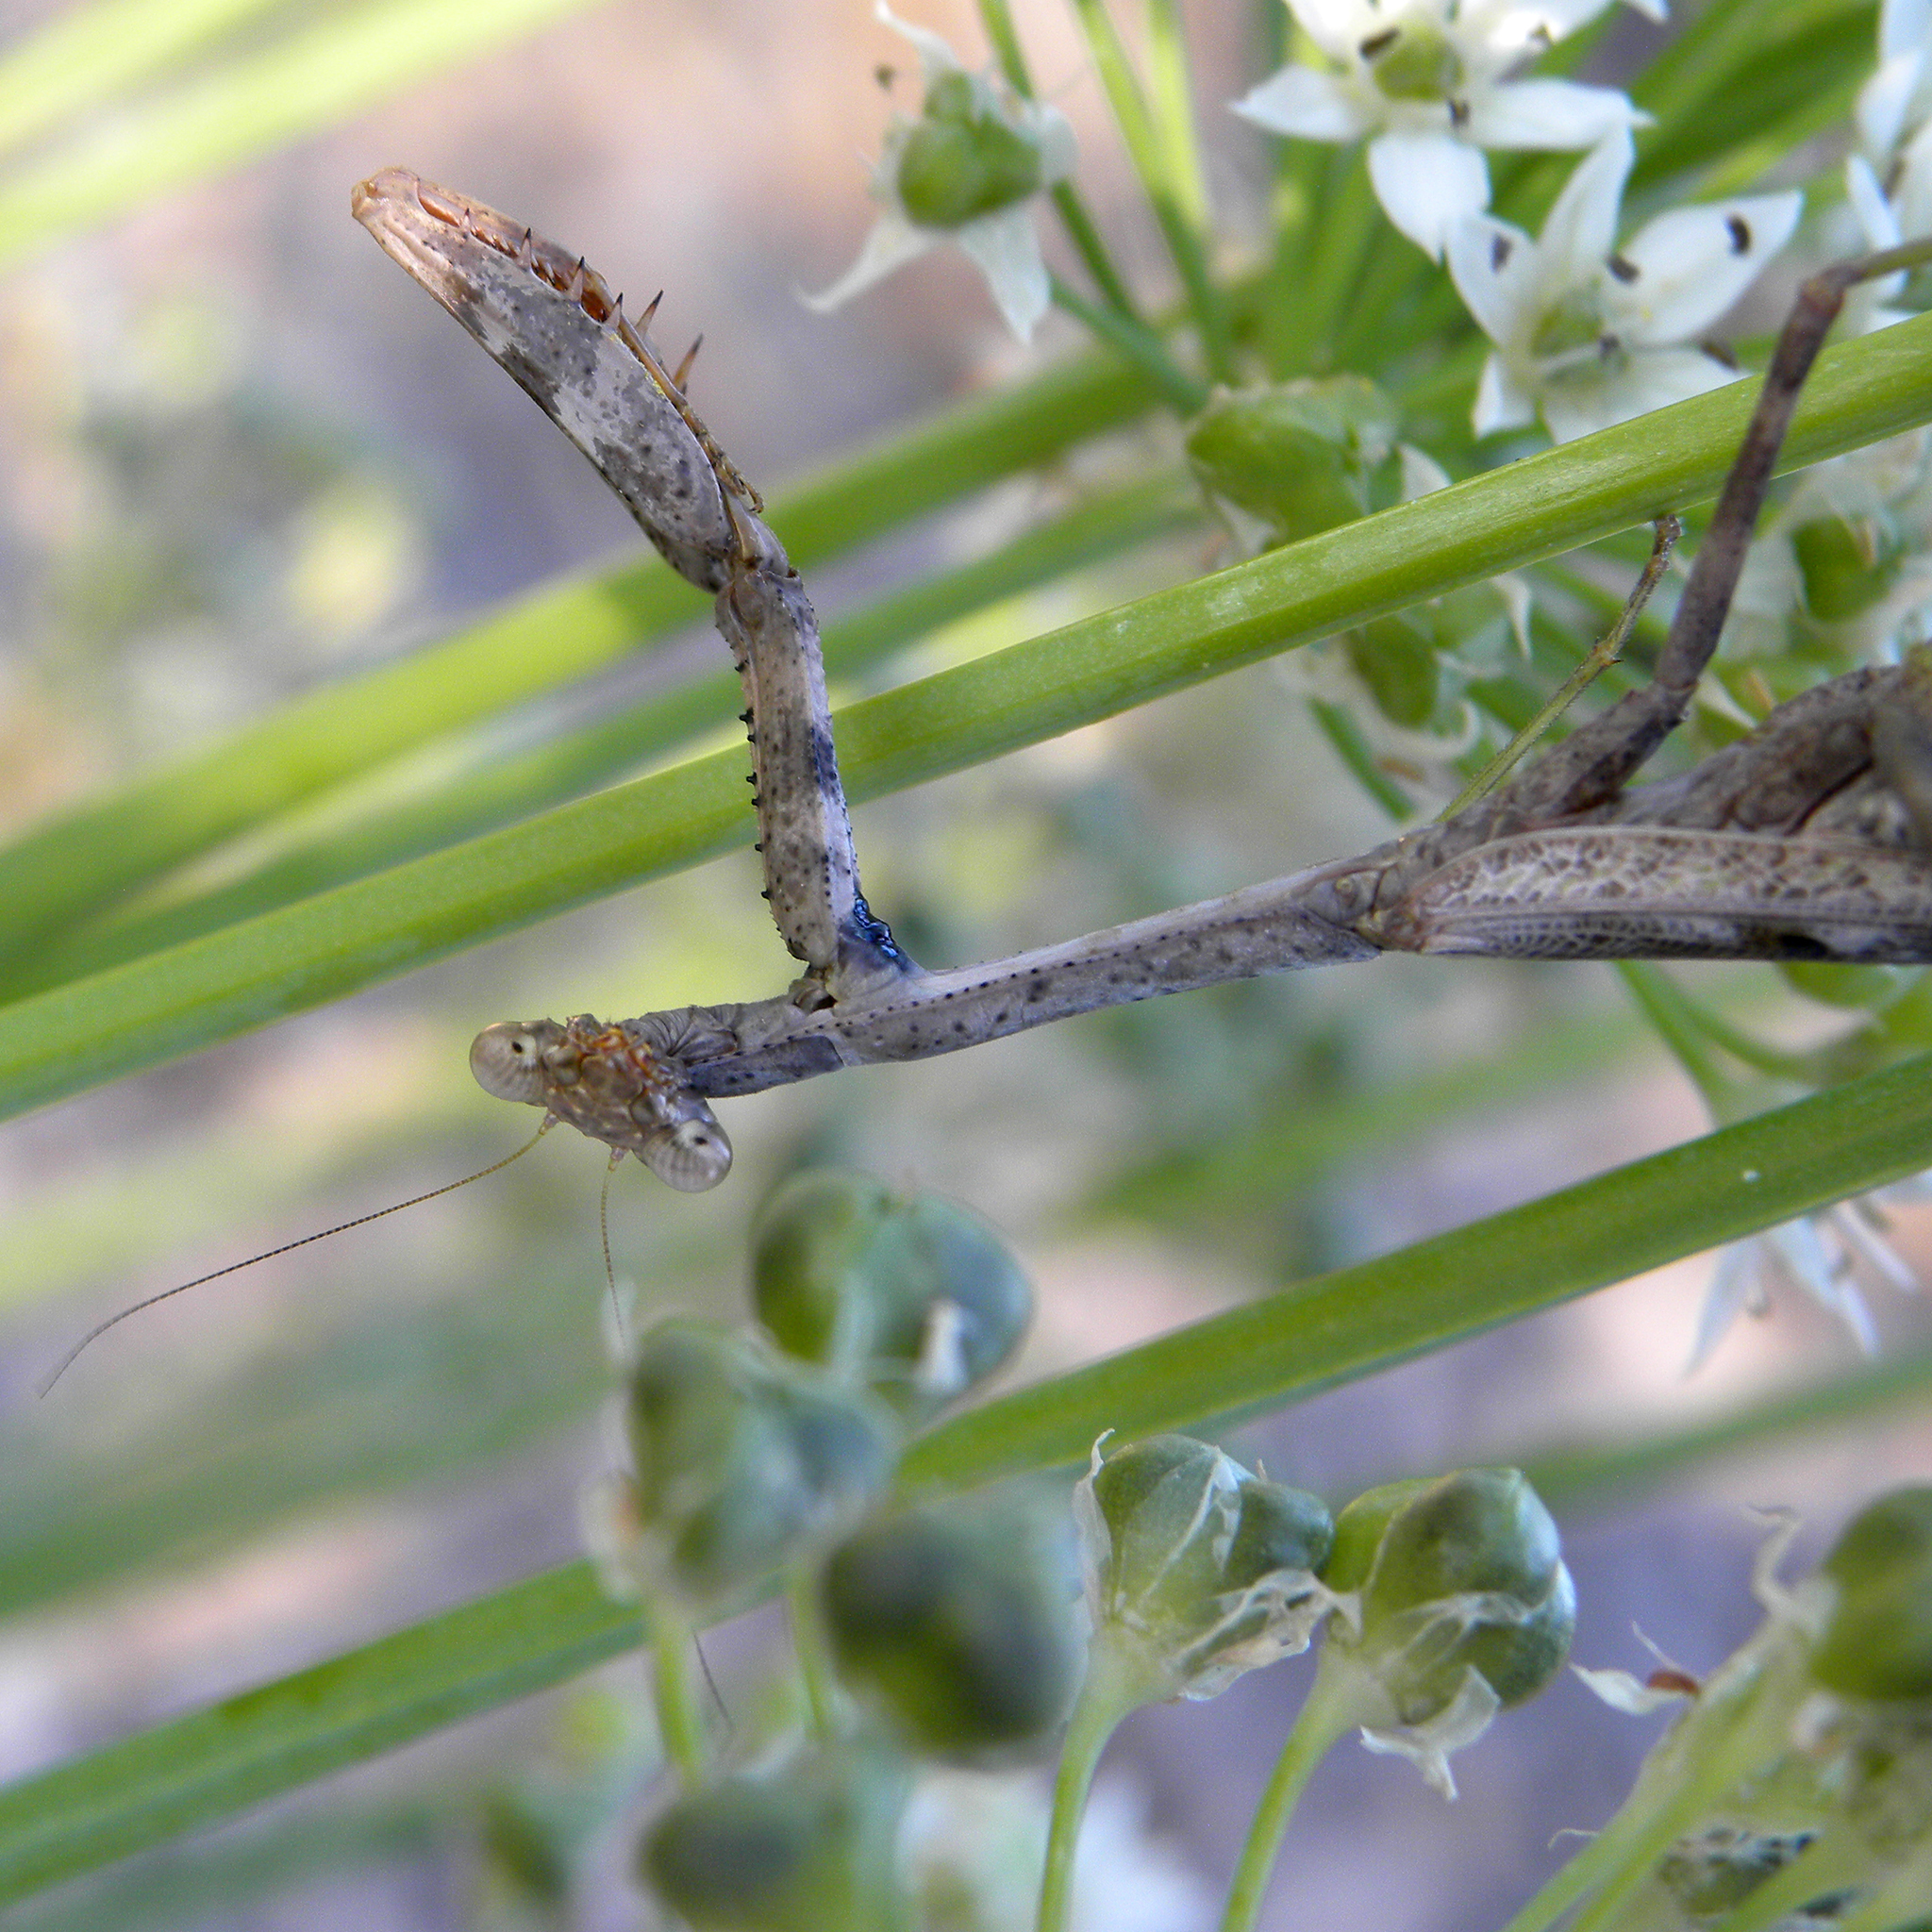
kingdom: Animalia
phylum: Arthropoda
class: Insecta
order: Mantodea
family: Mantidae
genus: Stagmomantis
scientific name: Stagmomantis carolina
